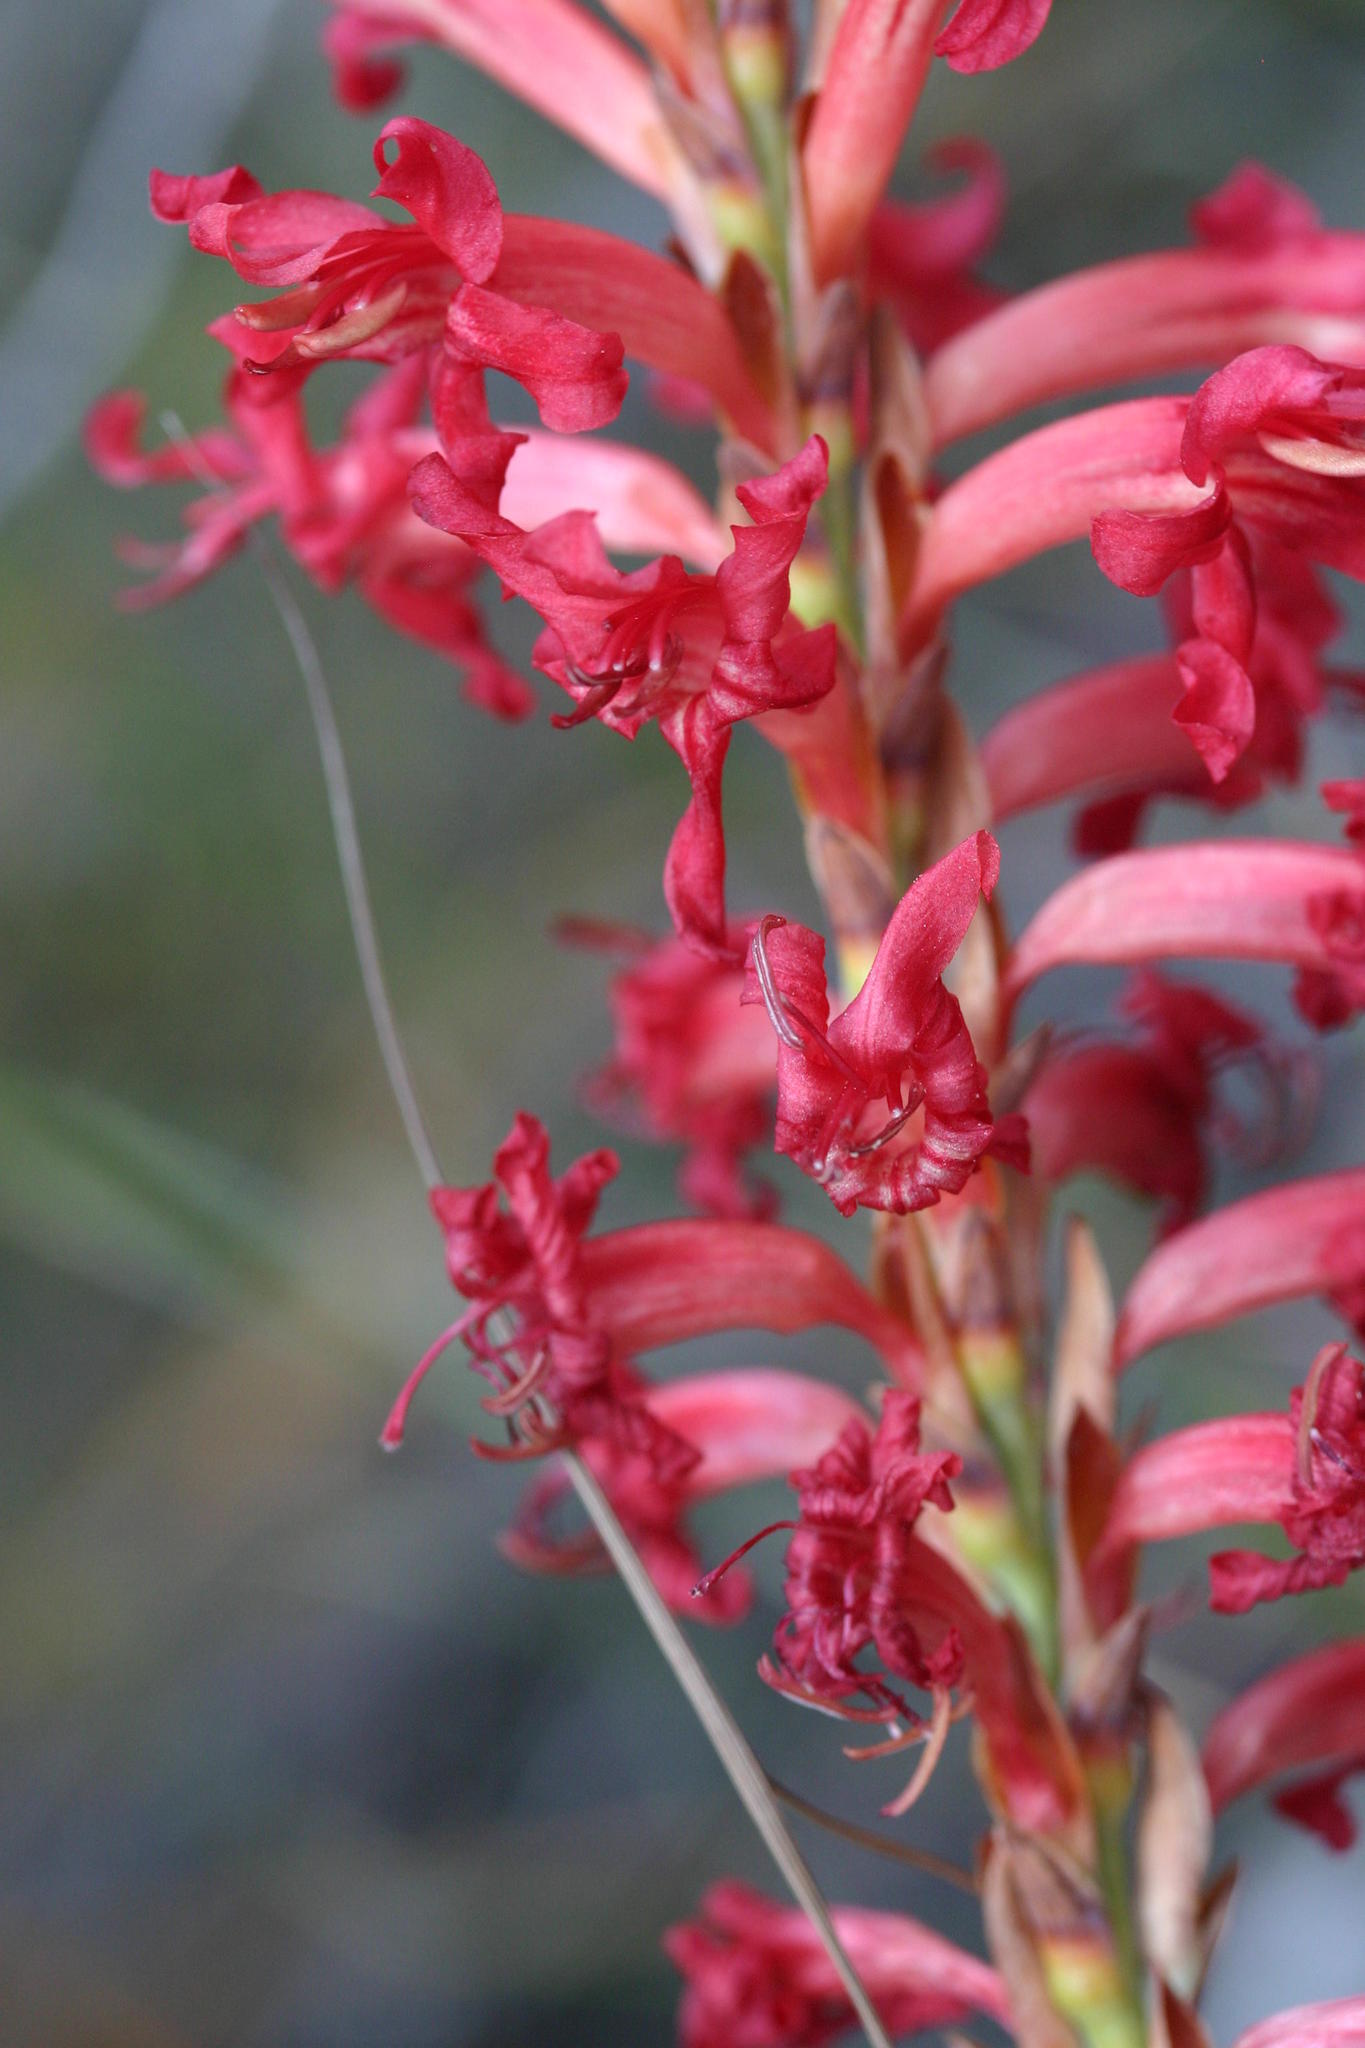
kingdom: Plantae
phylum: Tracheophyta
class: Liliopsida
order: Asparagales
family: Iridaceae
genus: Tritoniopsis
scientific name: Tritoniopsis triticea
